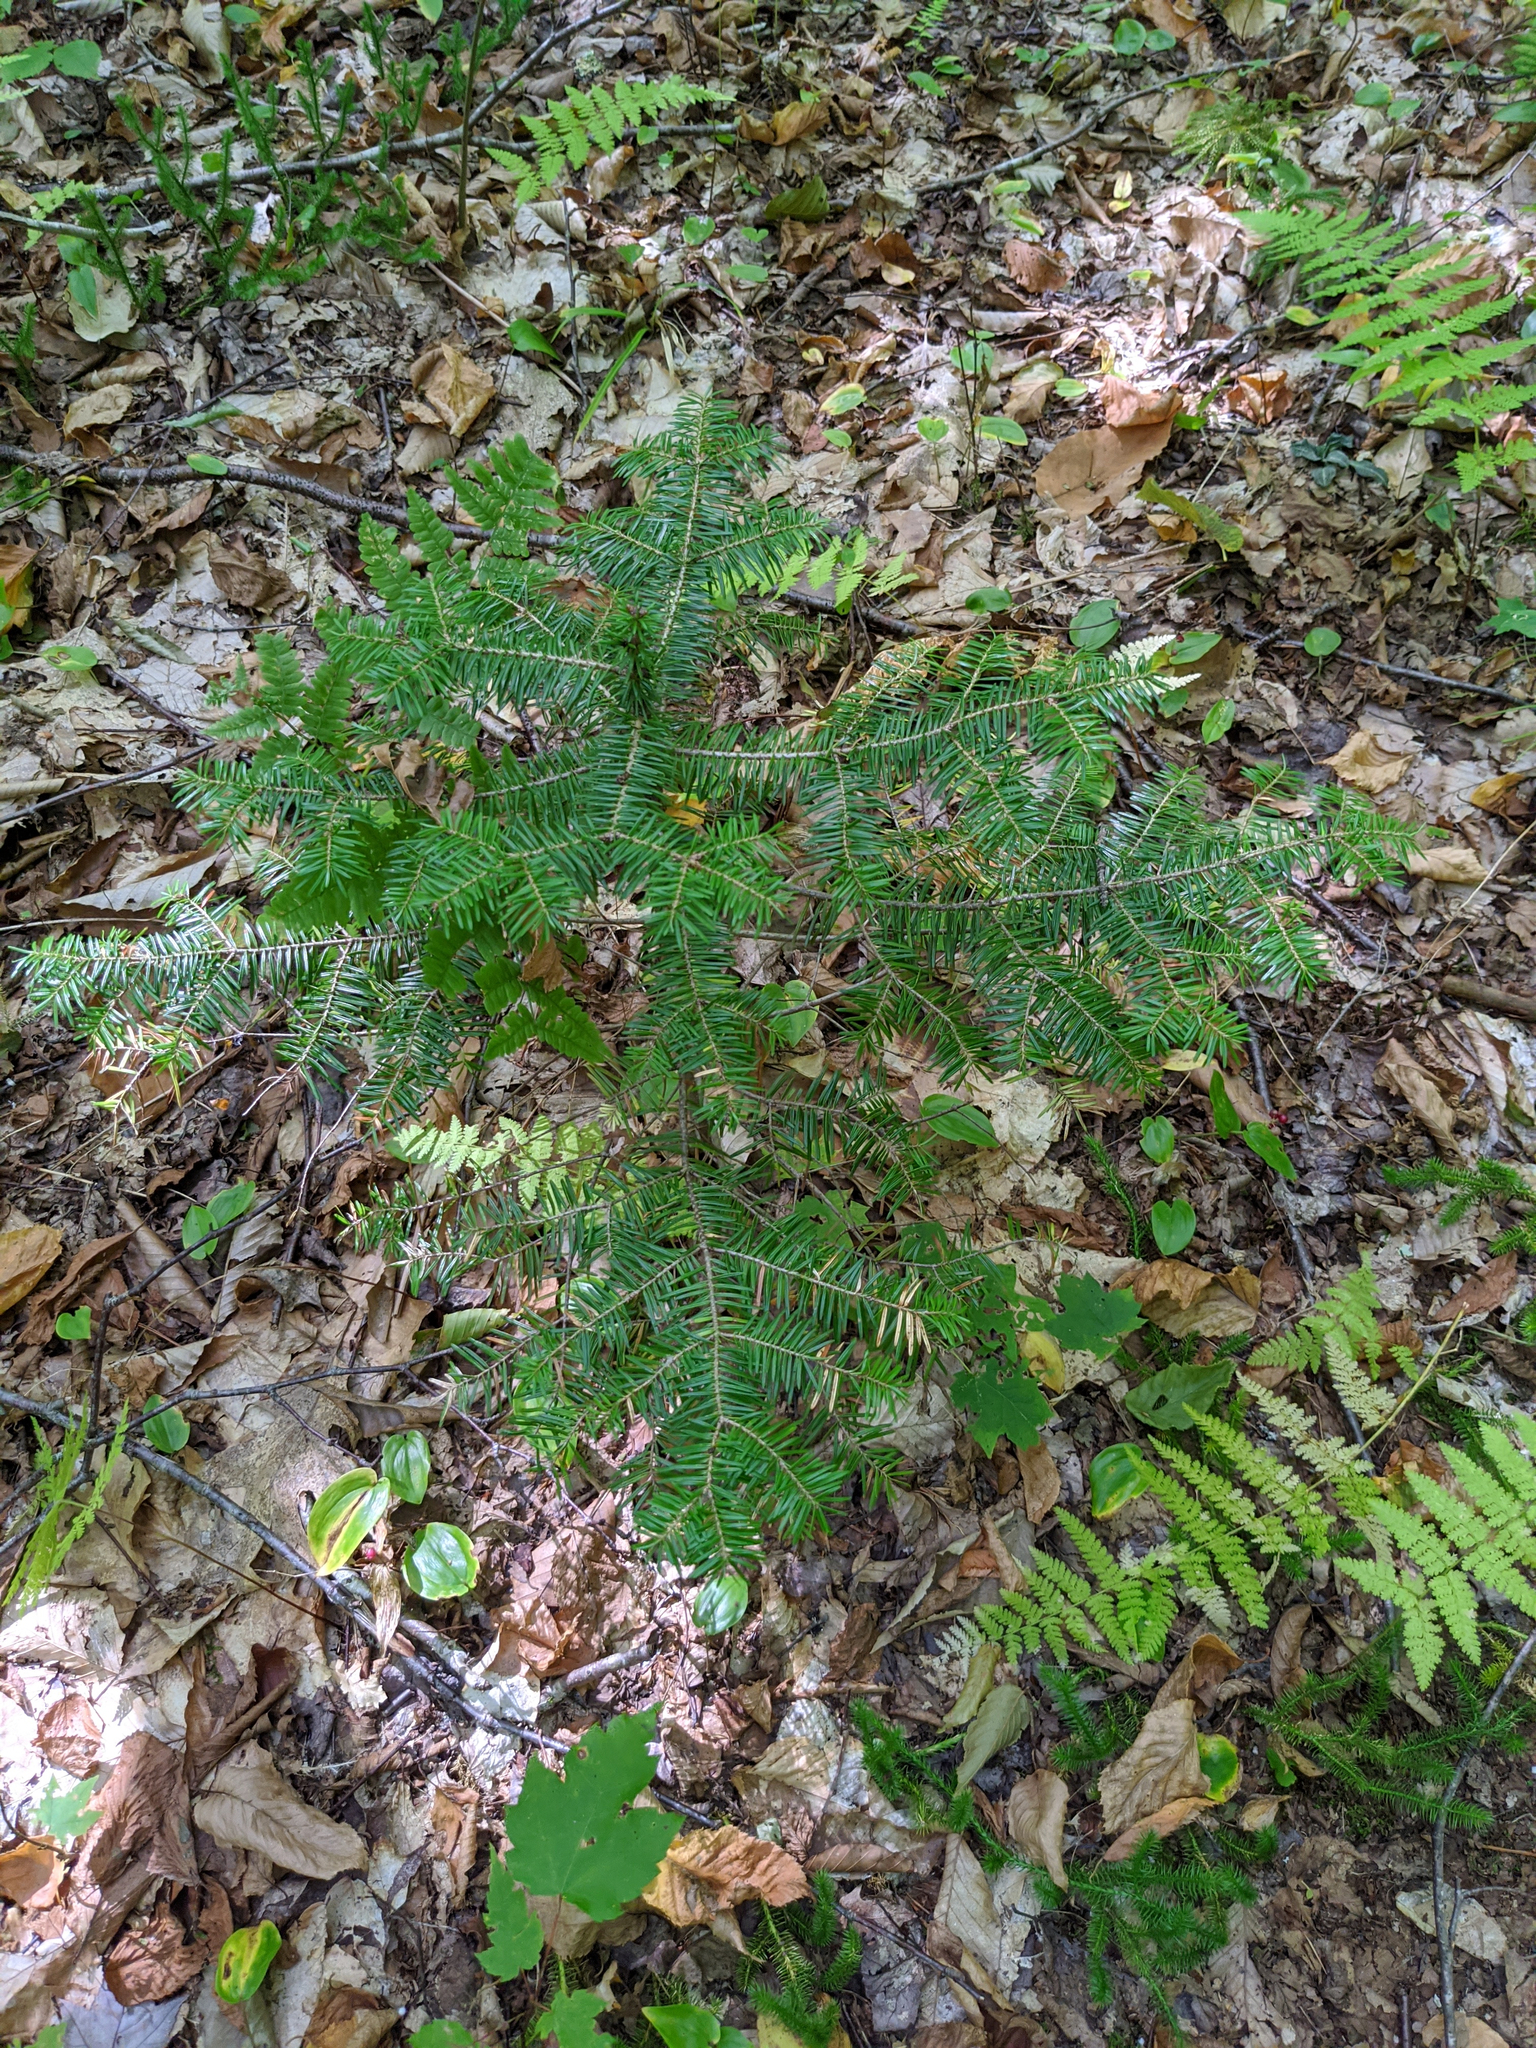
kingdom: Plantae
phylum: Tracheophyta
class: Pinopsida
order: Pinales
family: Pinaceae
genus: Abies
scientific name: Abies balsamea
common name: Balsam fir
